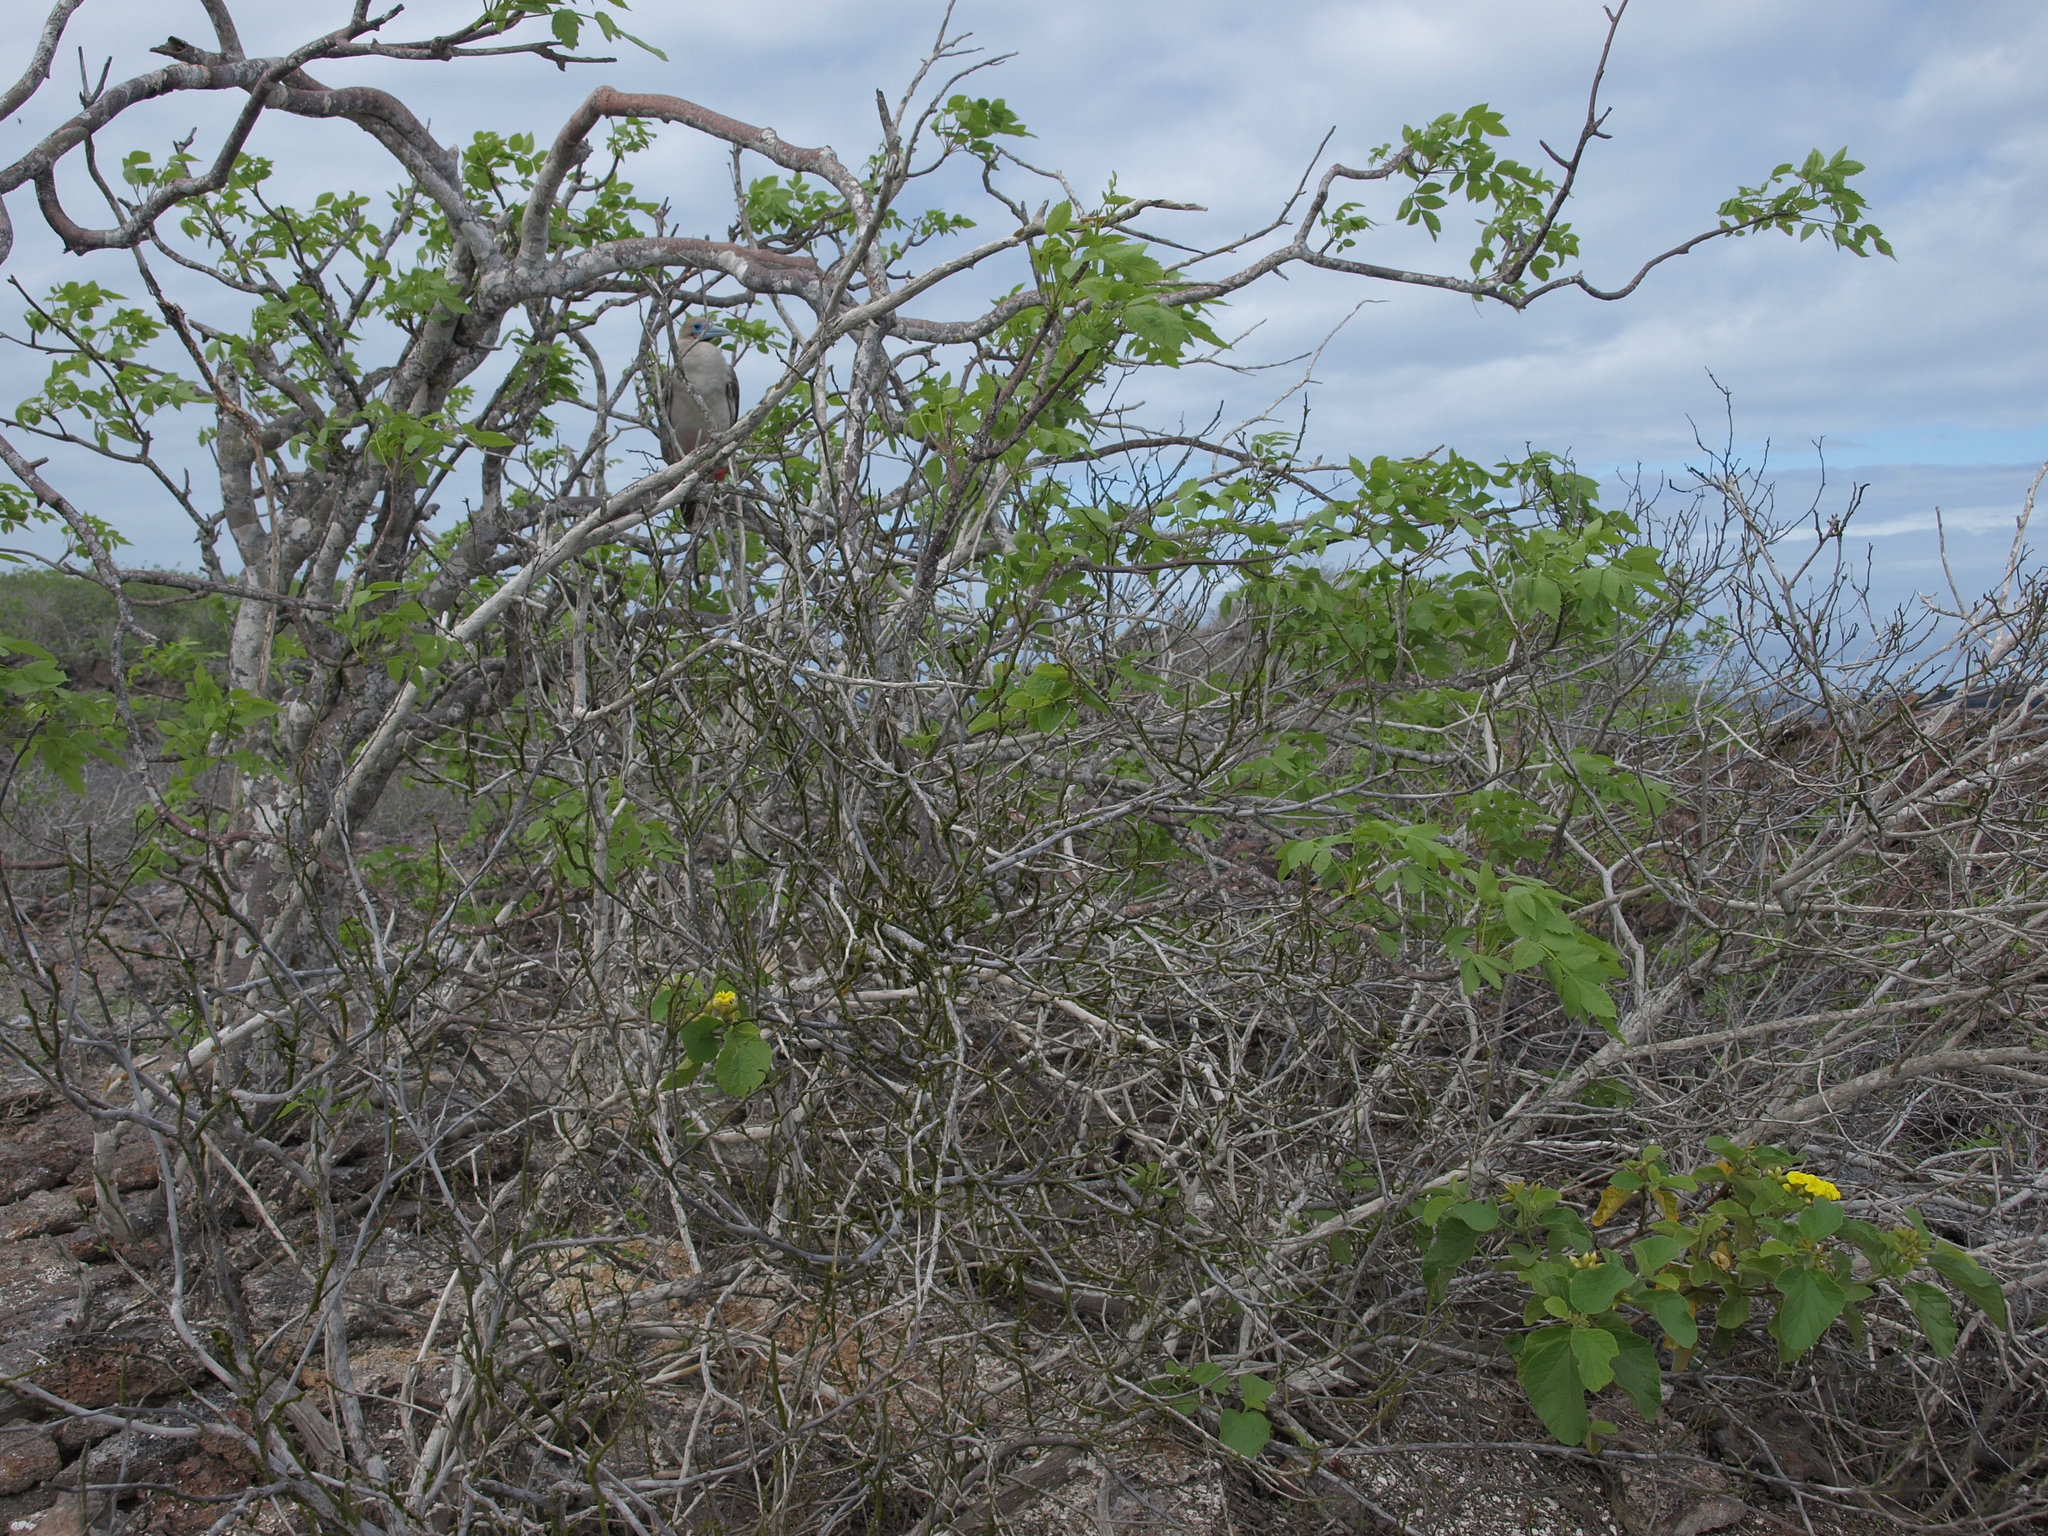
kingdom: Plantae
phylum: Tracheophyta
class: Magnoliopsida
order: Boraginales
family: Cordiaceae
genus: Cordia
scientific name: Cordia lutea
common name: Yellow geiger
